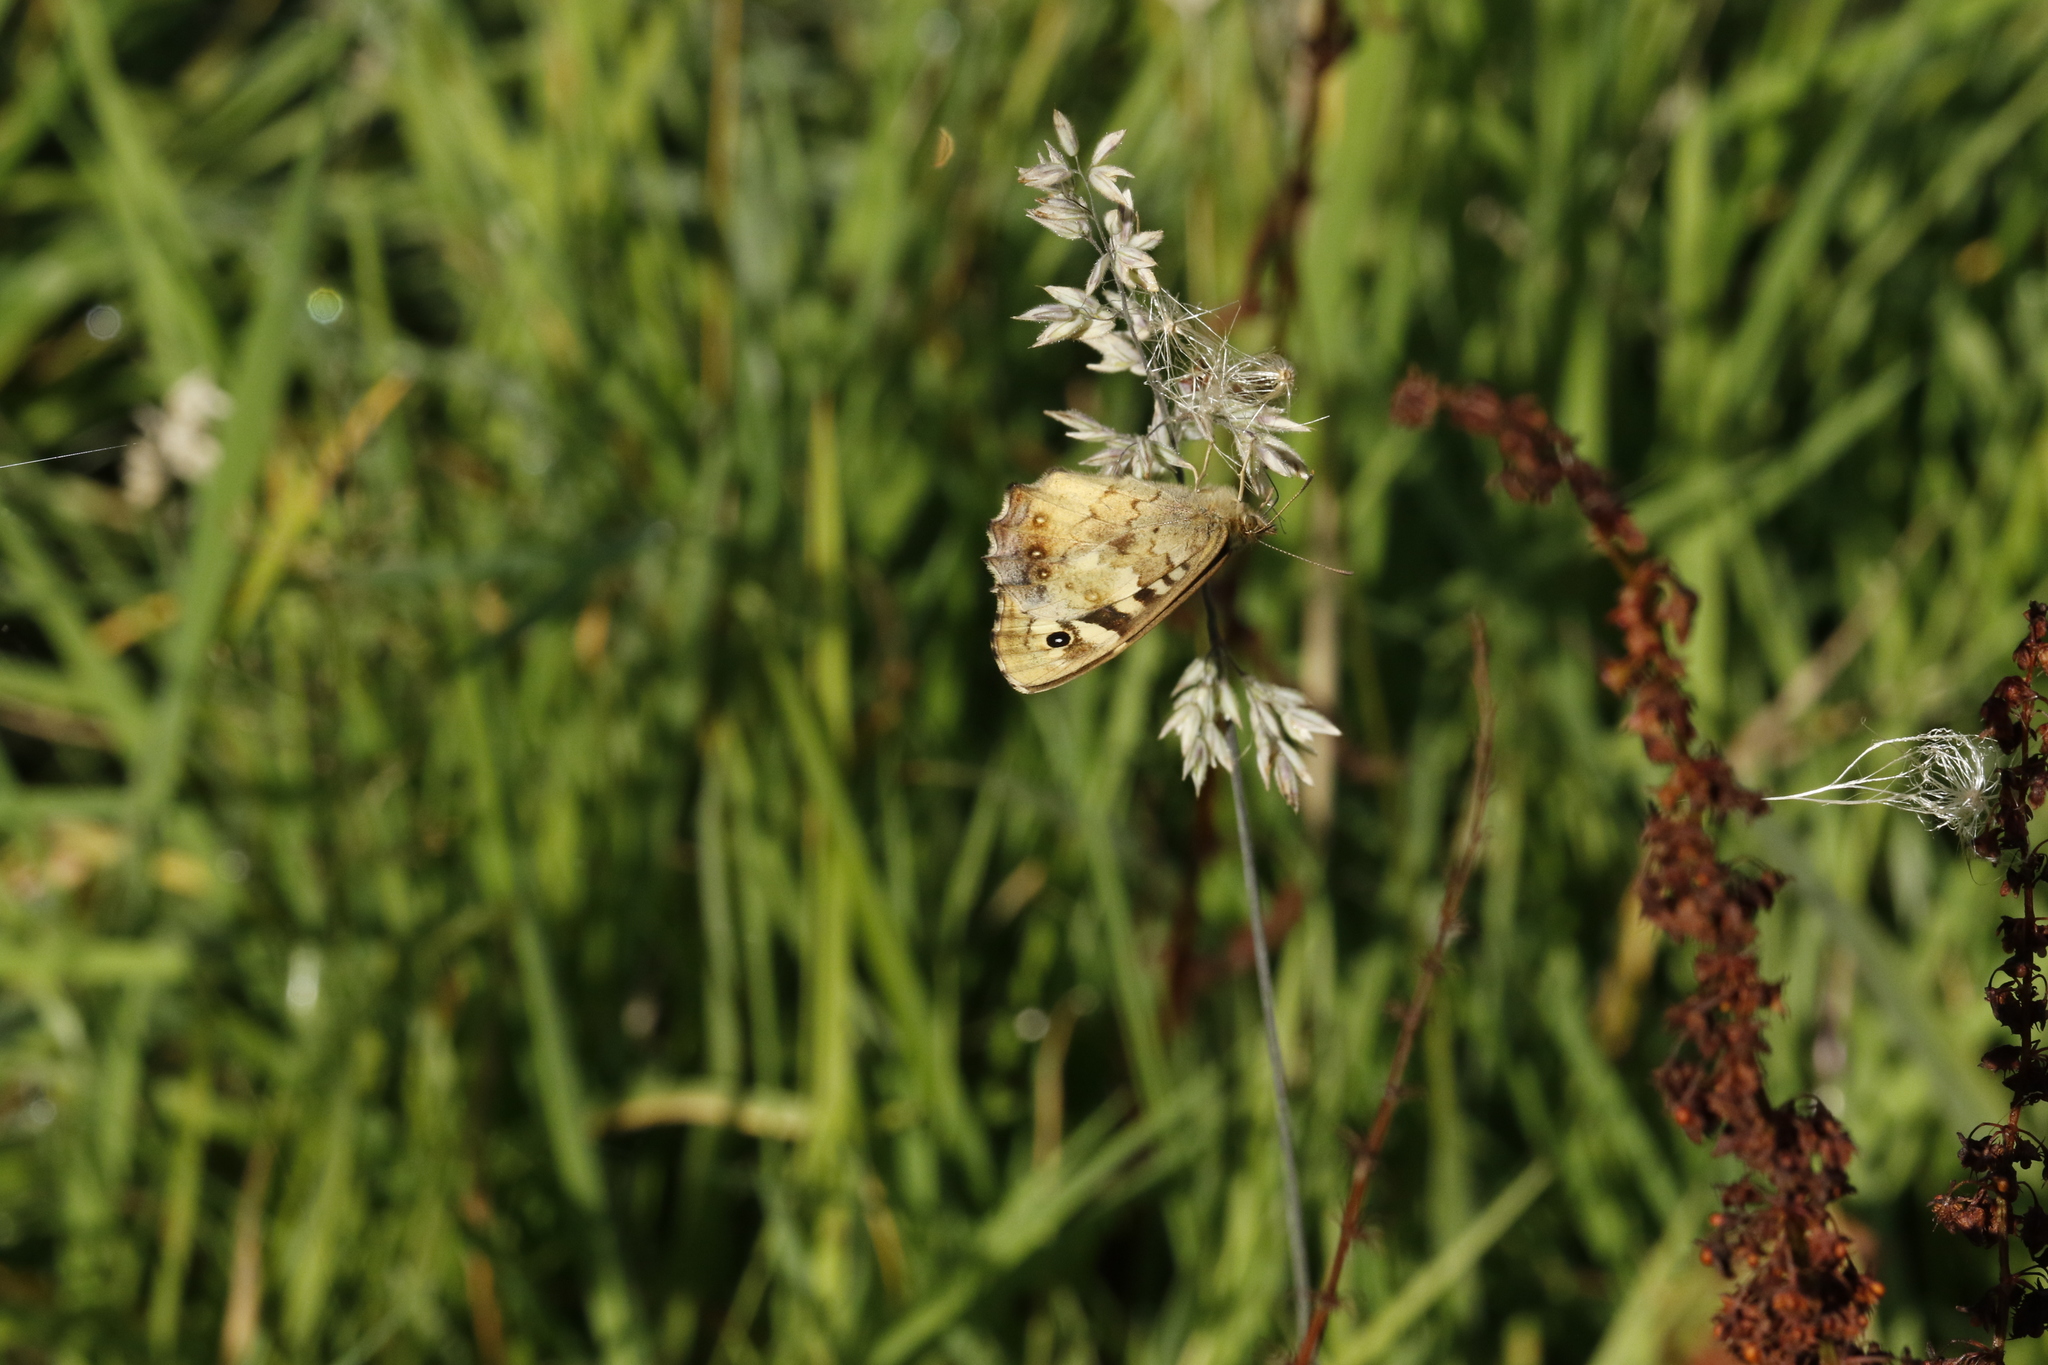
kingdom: Animalia
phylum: Arthropoda
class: Insecta
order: Lepidoptera
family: Nymphalidae
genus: Pararge
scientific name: Pararge aegeria
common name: Speckled wood
